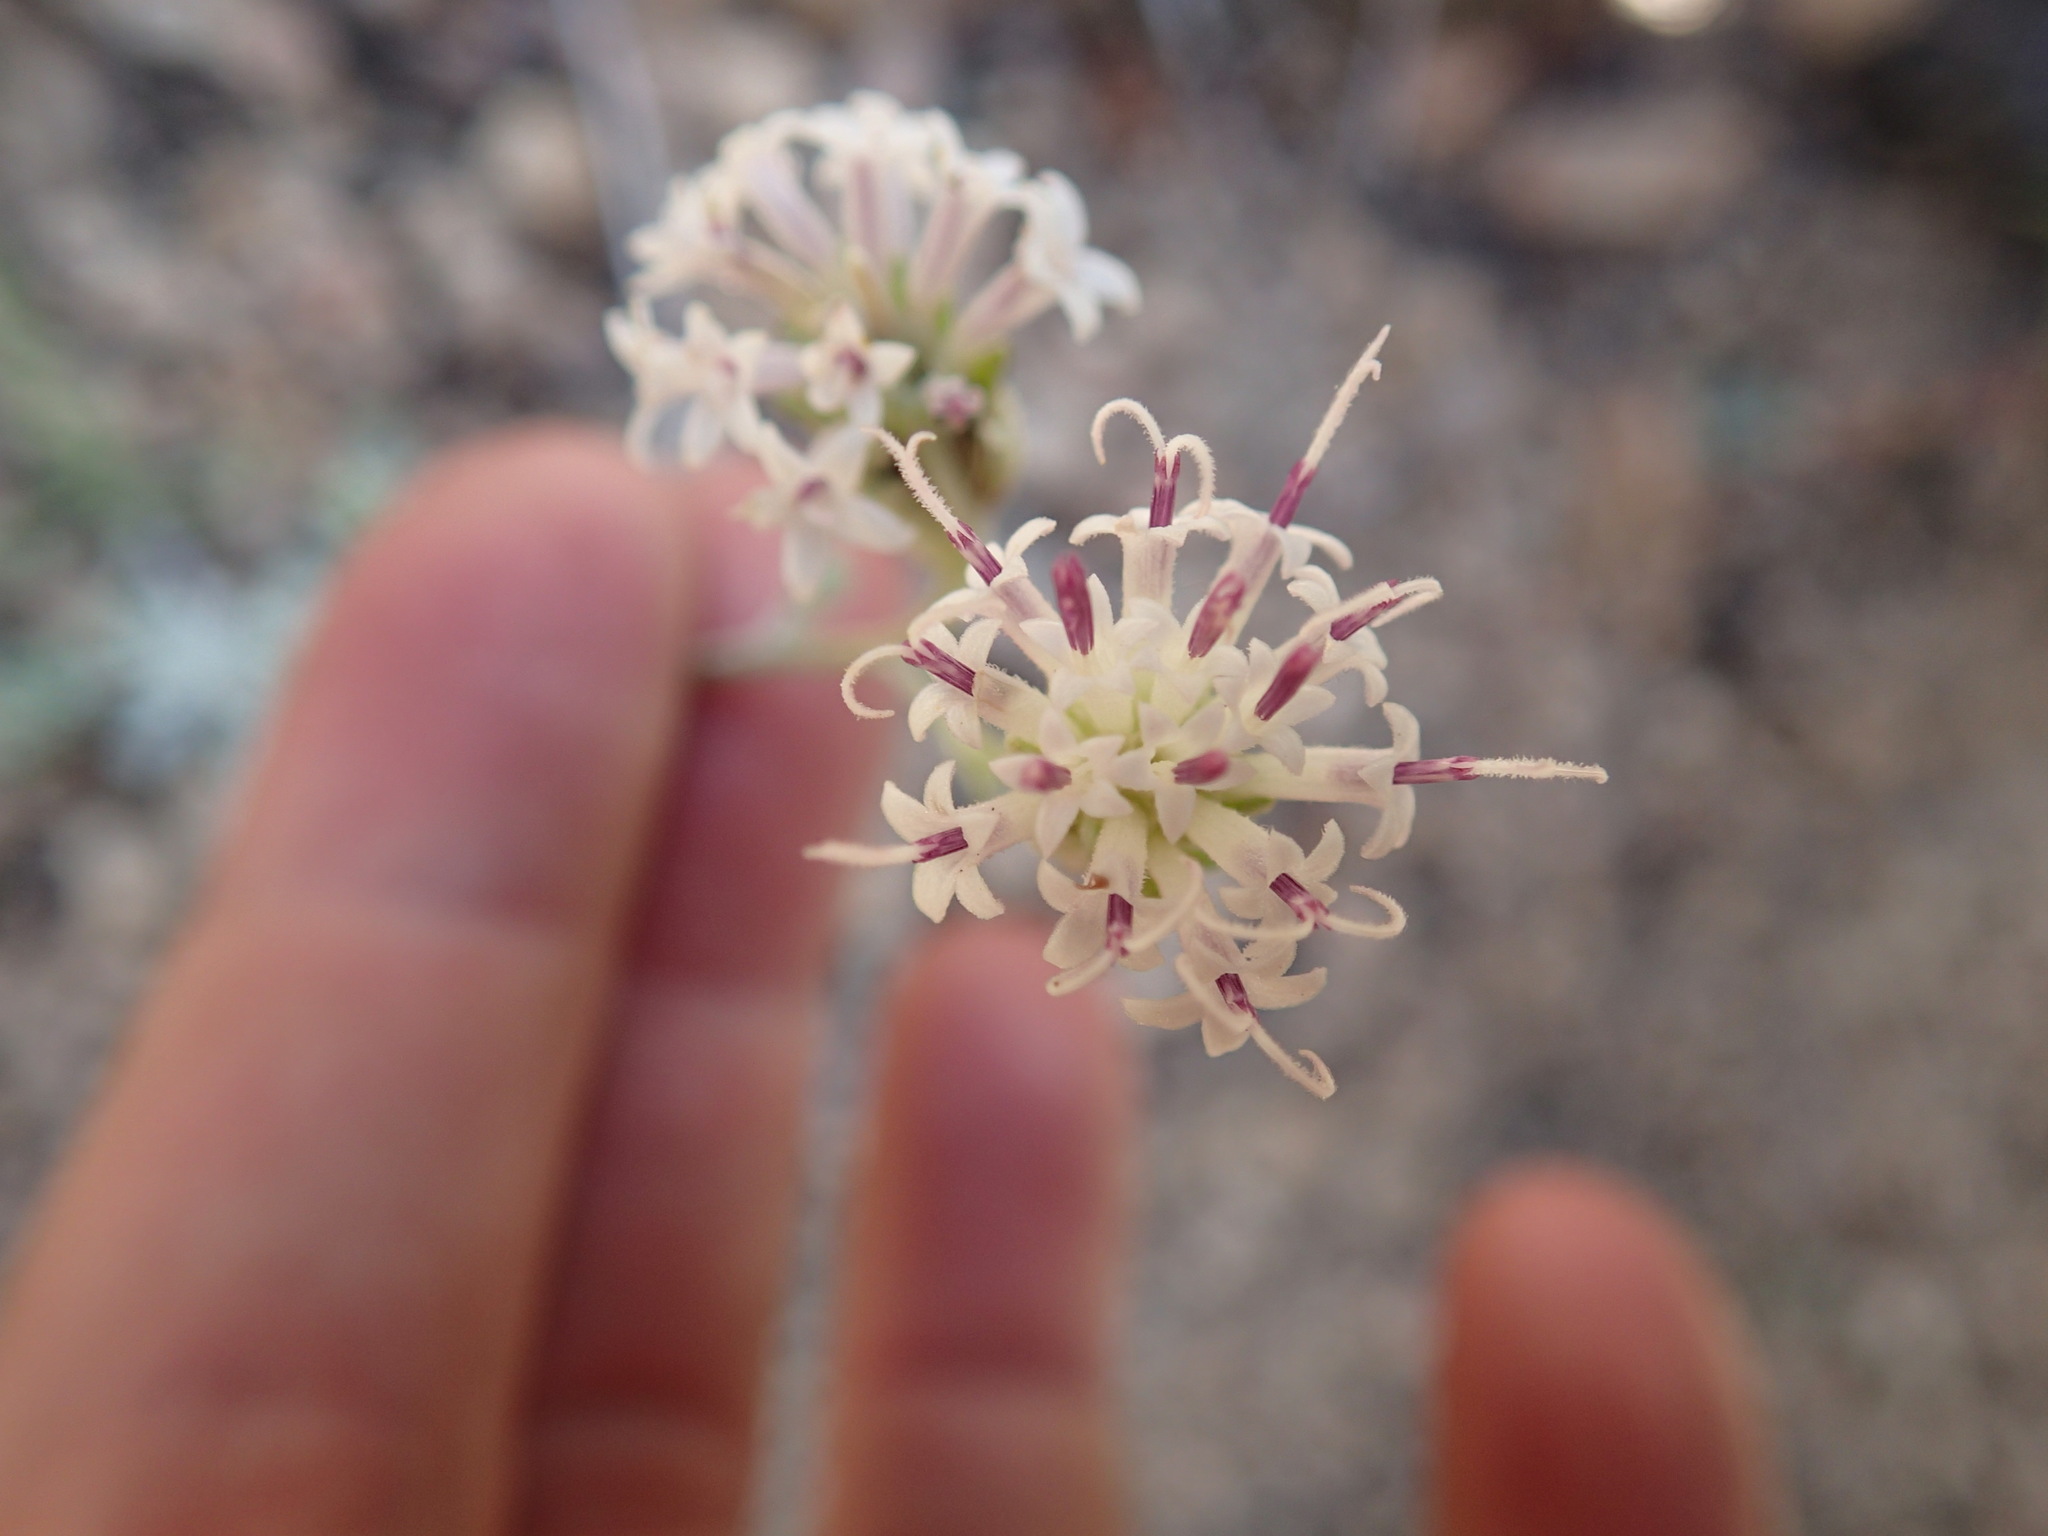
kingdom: Plantae
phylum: Tracheophyta
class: Magnoliopsida
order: Asterales
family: Asteraceae
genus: Chaenactis
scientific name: Chaenactis douglasii
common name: Hoary pincushion
